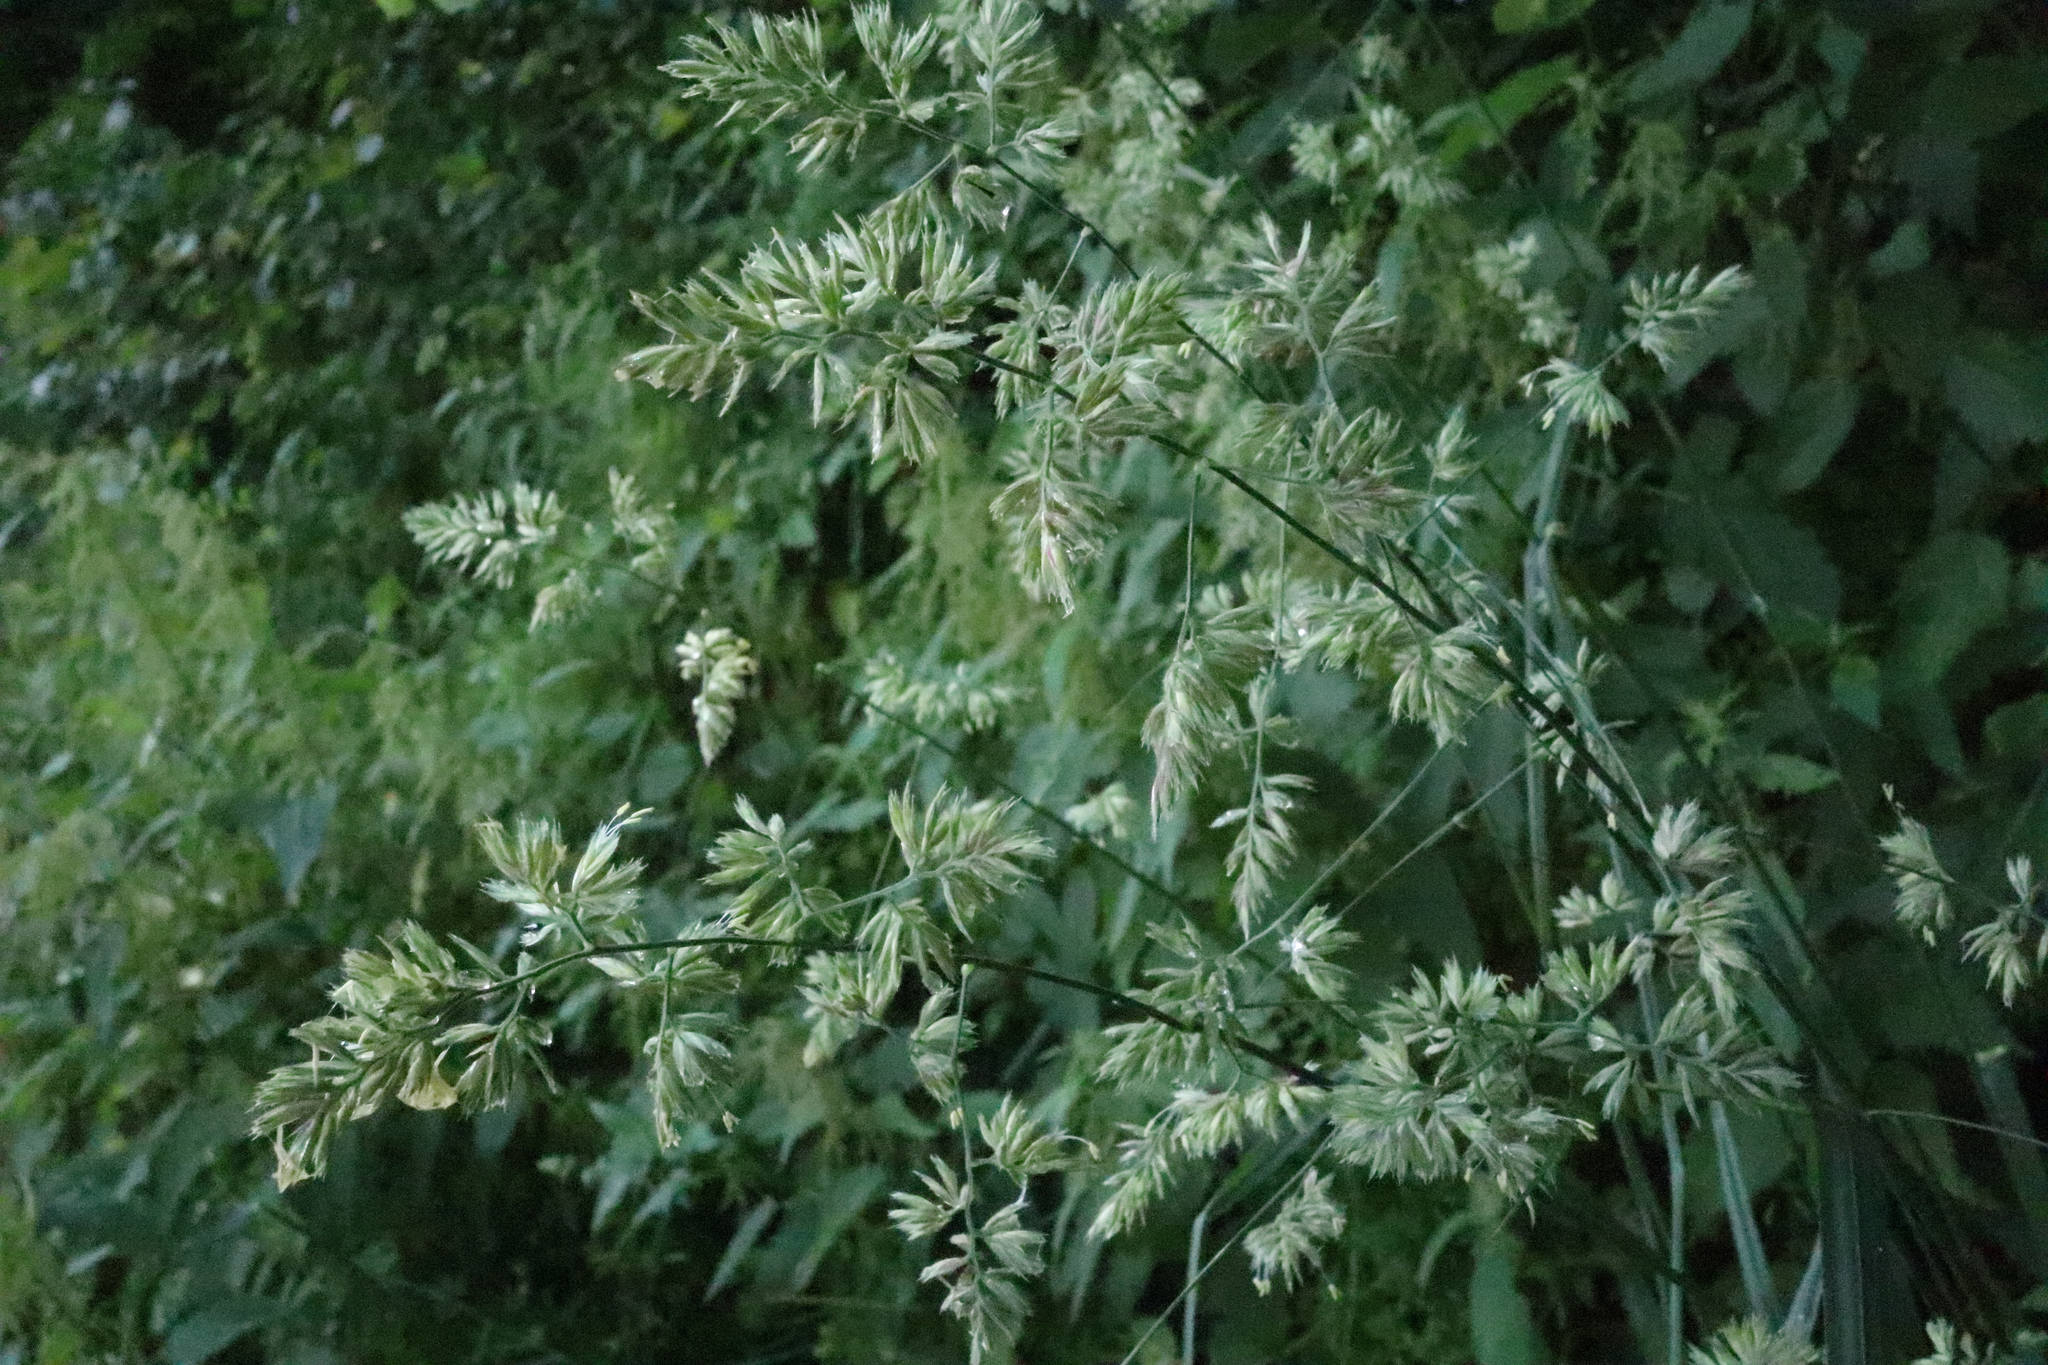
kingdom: Plantae
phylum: Tracheophyta
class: Liliopsida
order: Poales
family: Poaceae
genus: Dactylis
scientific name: Dactylis glomerata
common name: Orchardgrass
